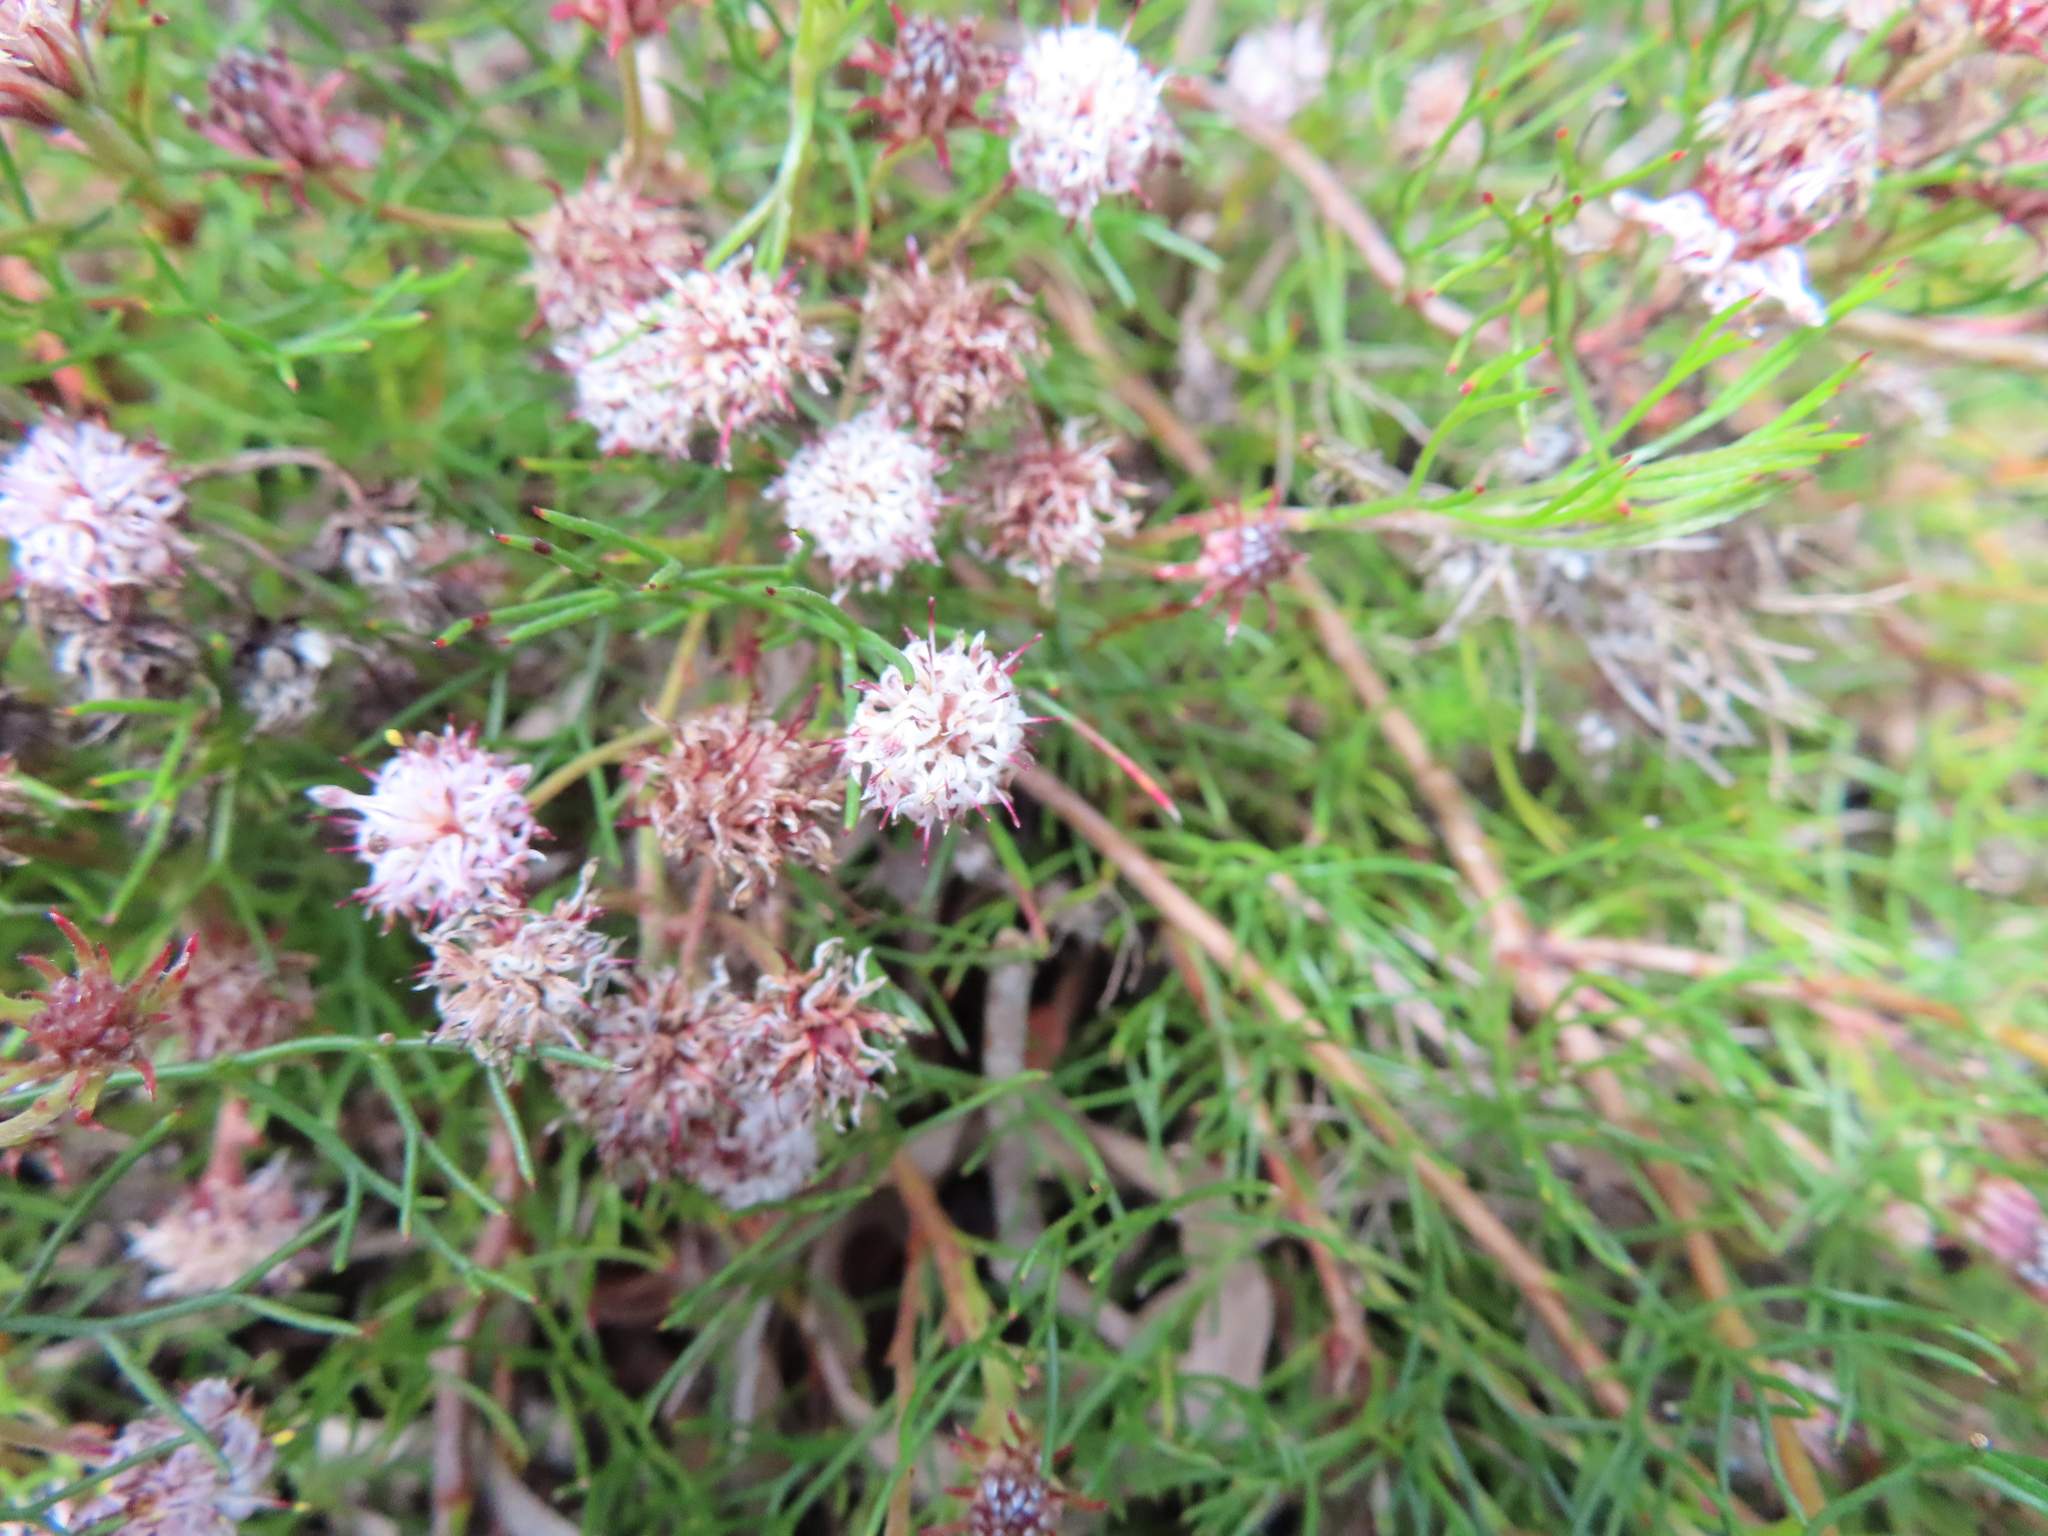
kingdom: Plantae
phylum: Tracheophyta
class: Magnoliopsida
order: Proteales
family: Proteaceae
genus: Serruria
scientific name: Serruria fasciflora
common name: Common pin spiderhead
